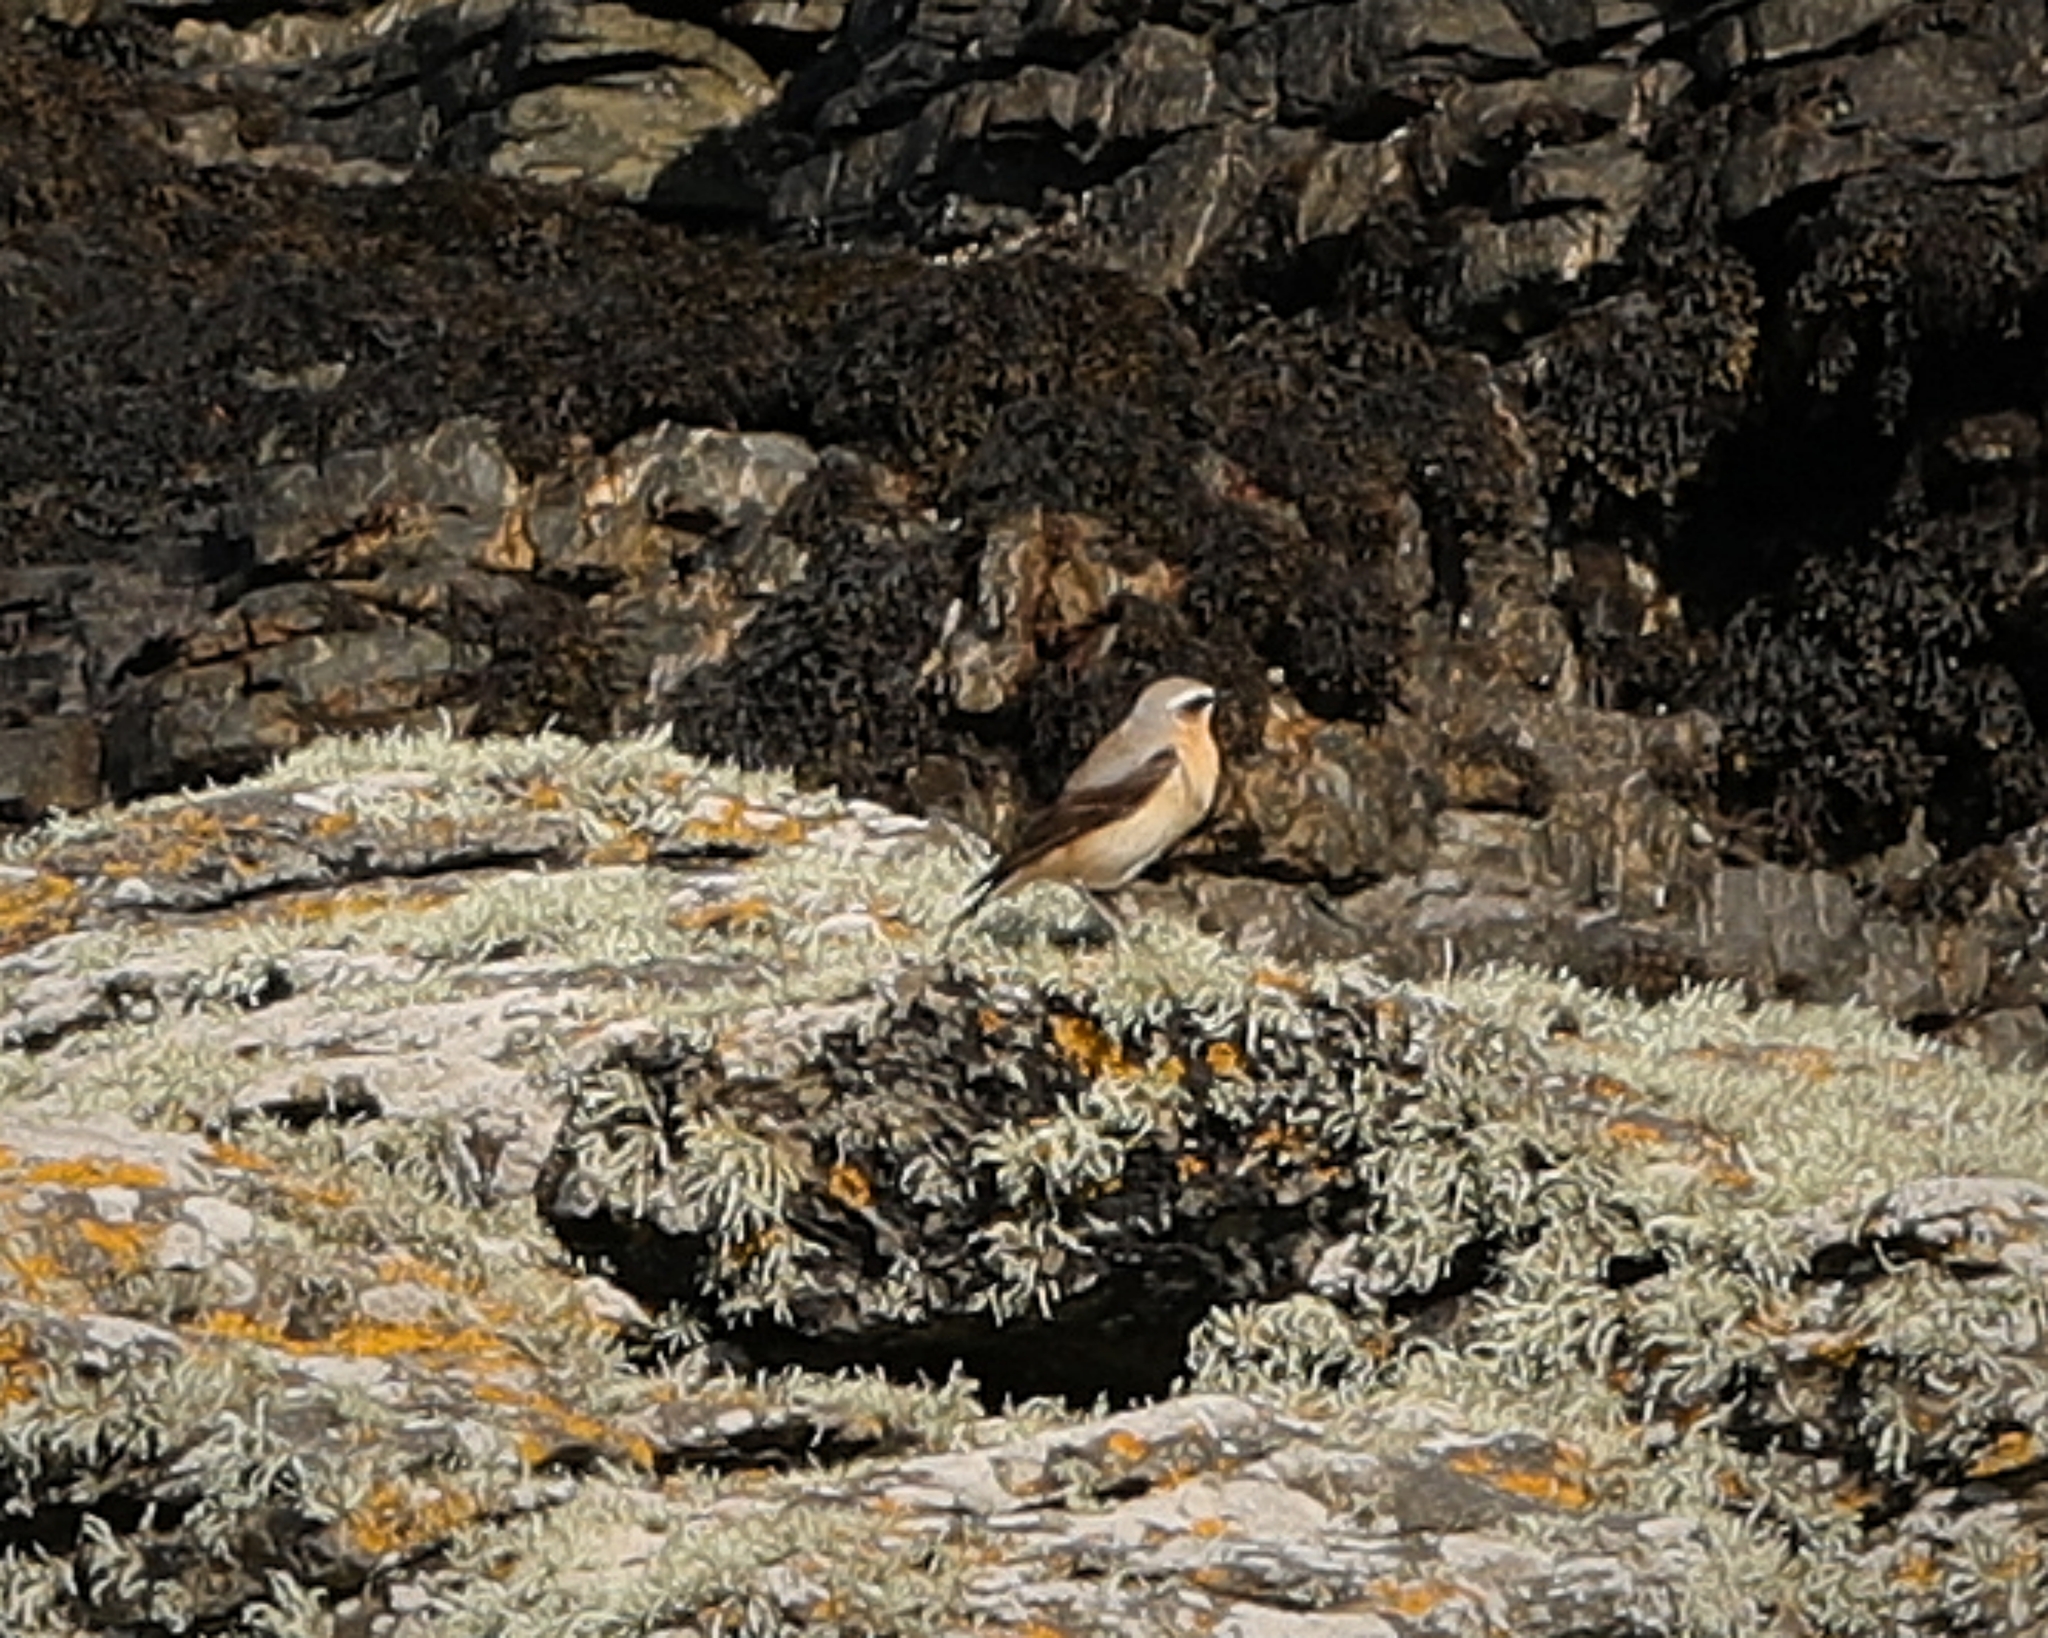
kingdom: Animalia
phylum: Chordata
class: Aves
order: Passeriformes
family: Muscicapidae
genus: Oenanthe
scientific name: Oenanthe oenanthe
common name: Northern wheatear
